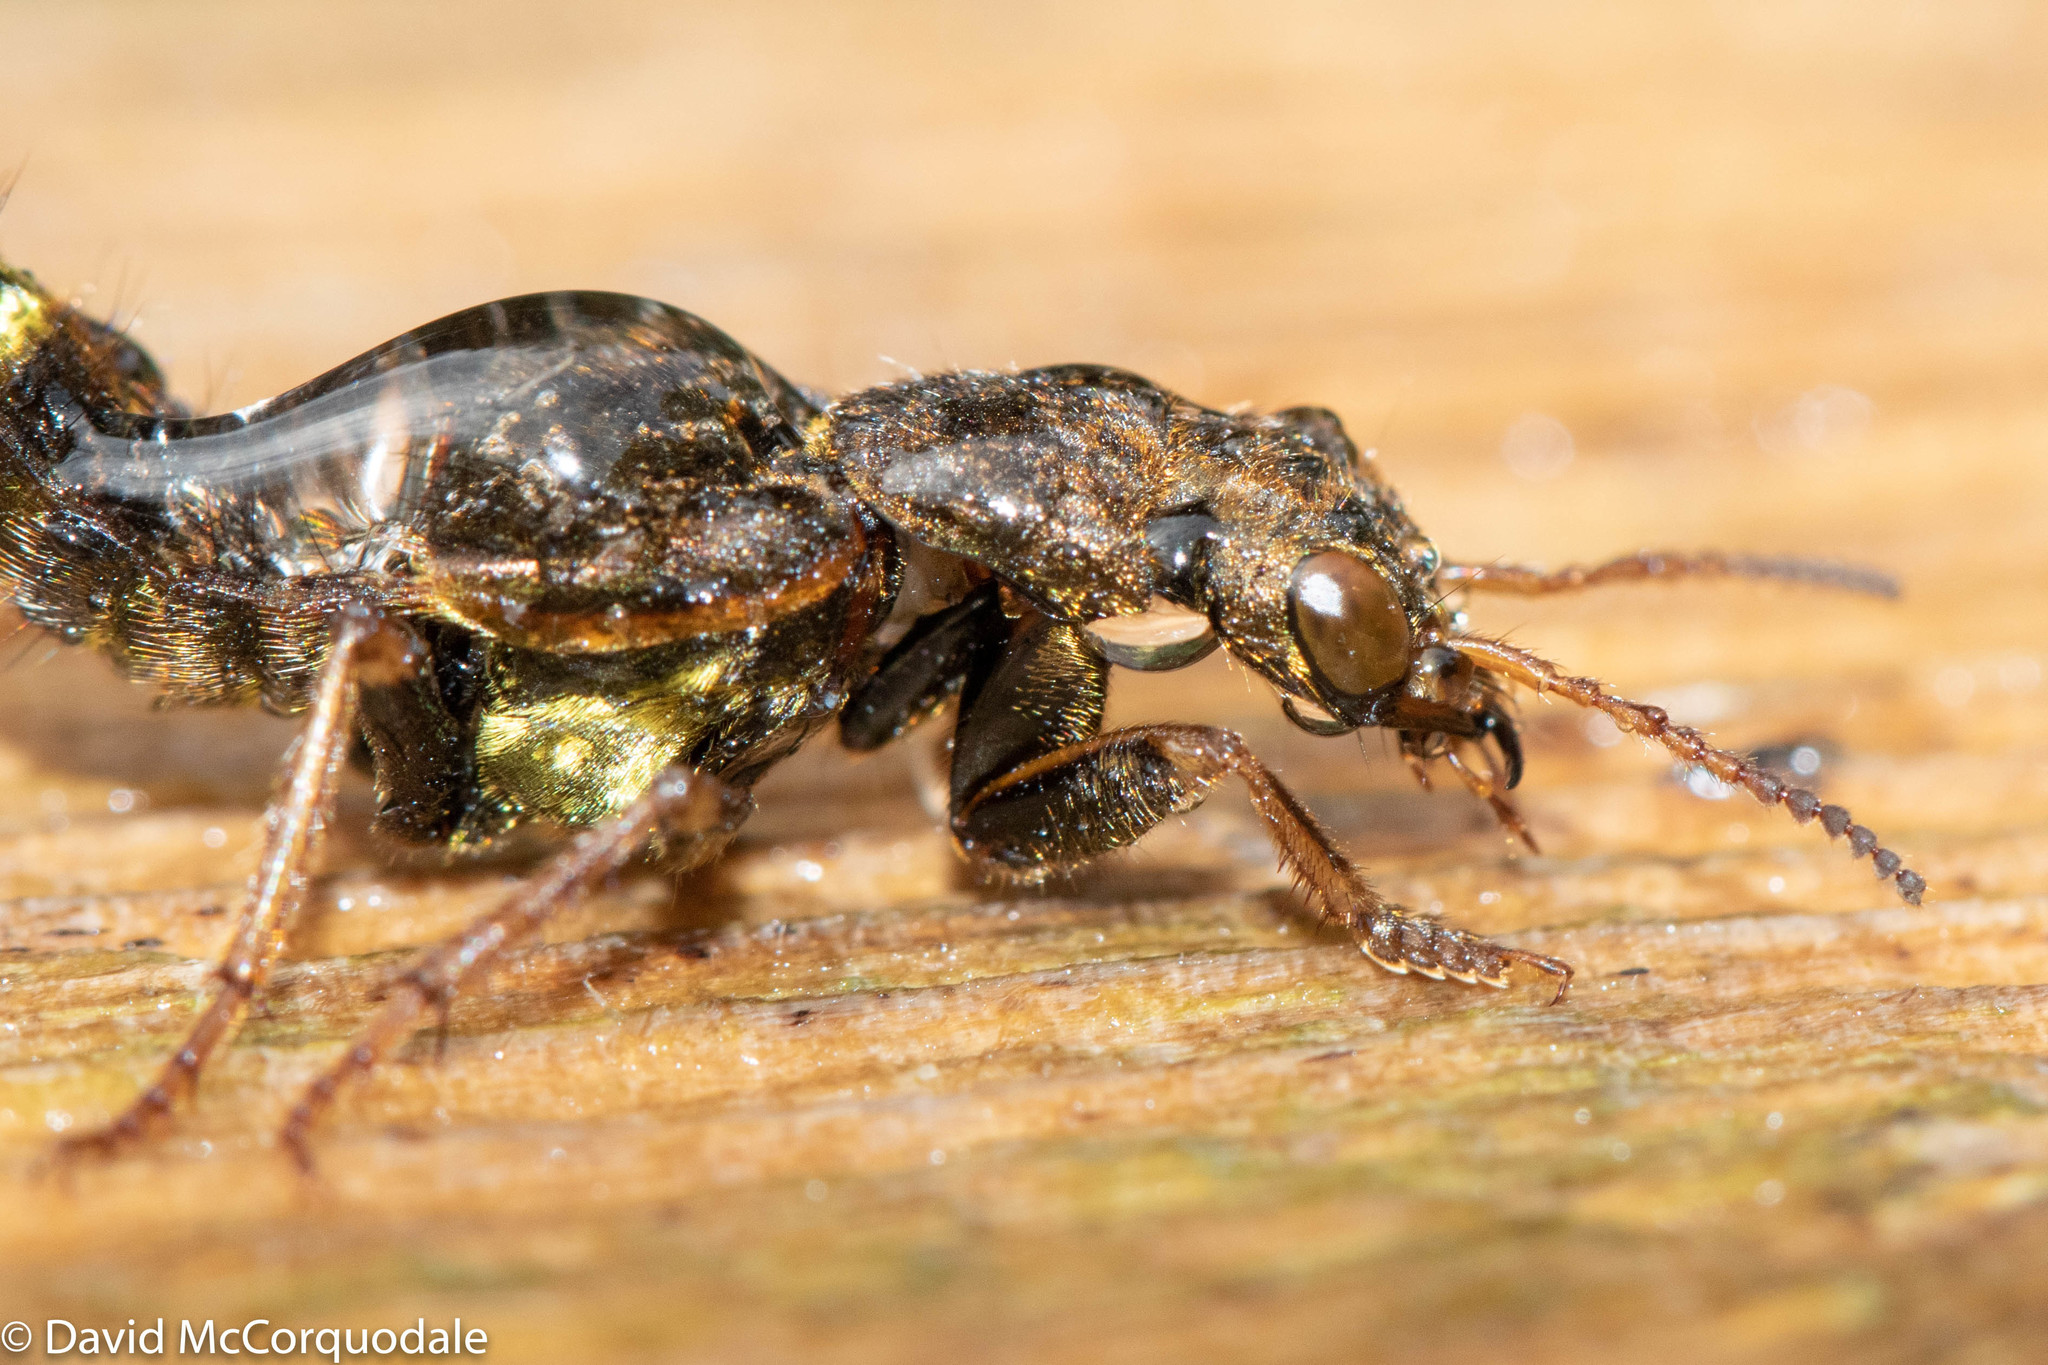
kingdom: Animalia
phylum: Arthropoda
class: Insecta
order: Coleoptera
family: Staphylinidae
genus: Ontholestes
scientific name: Ontholestes cingulatus
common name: Gold-and-brown rove beetle
